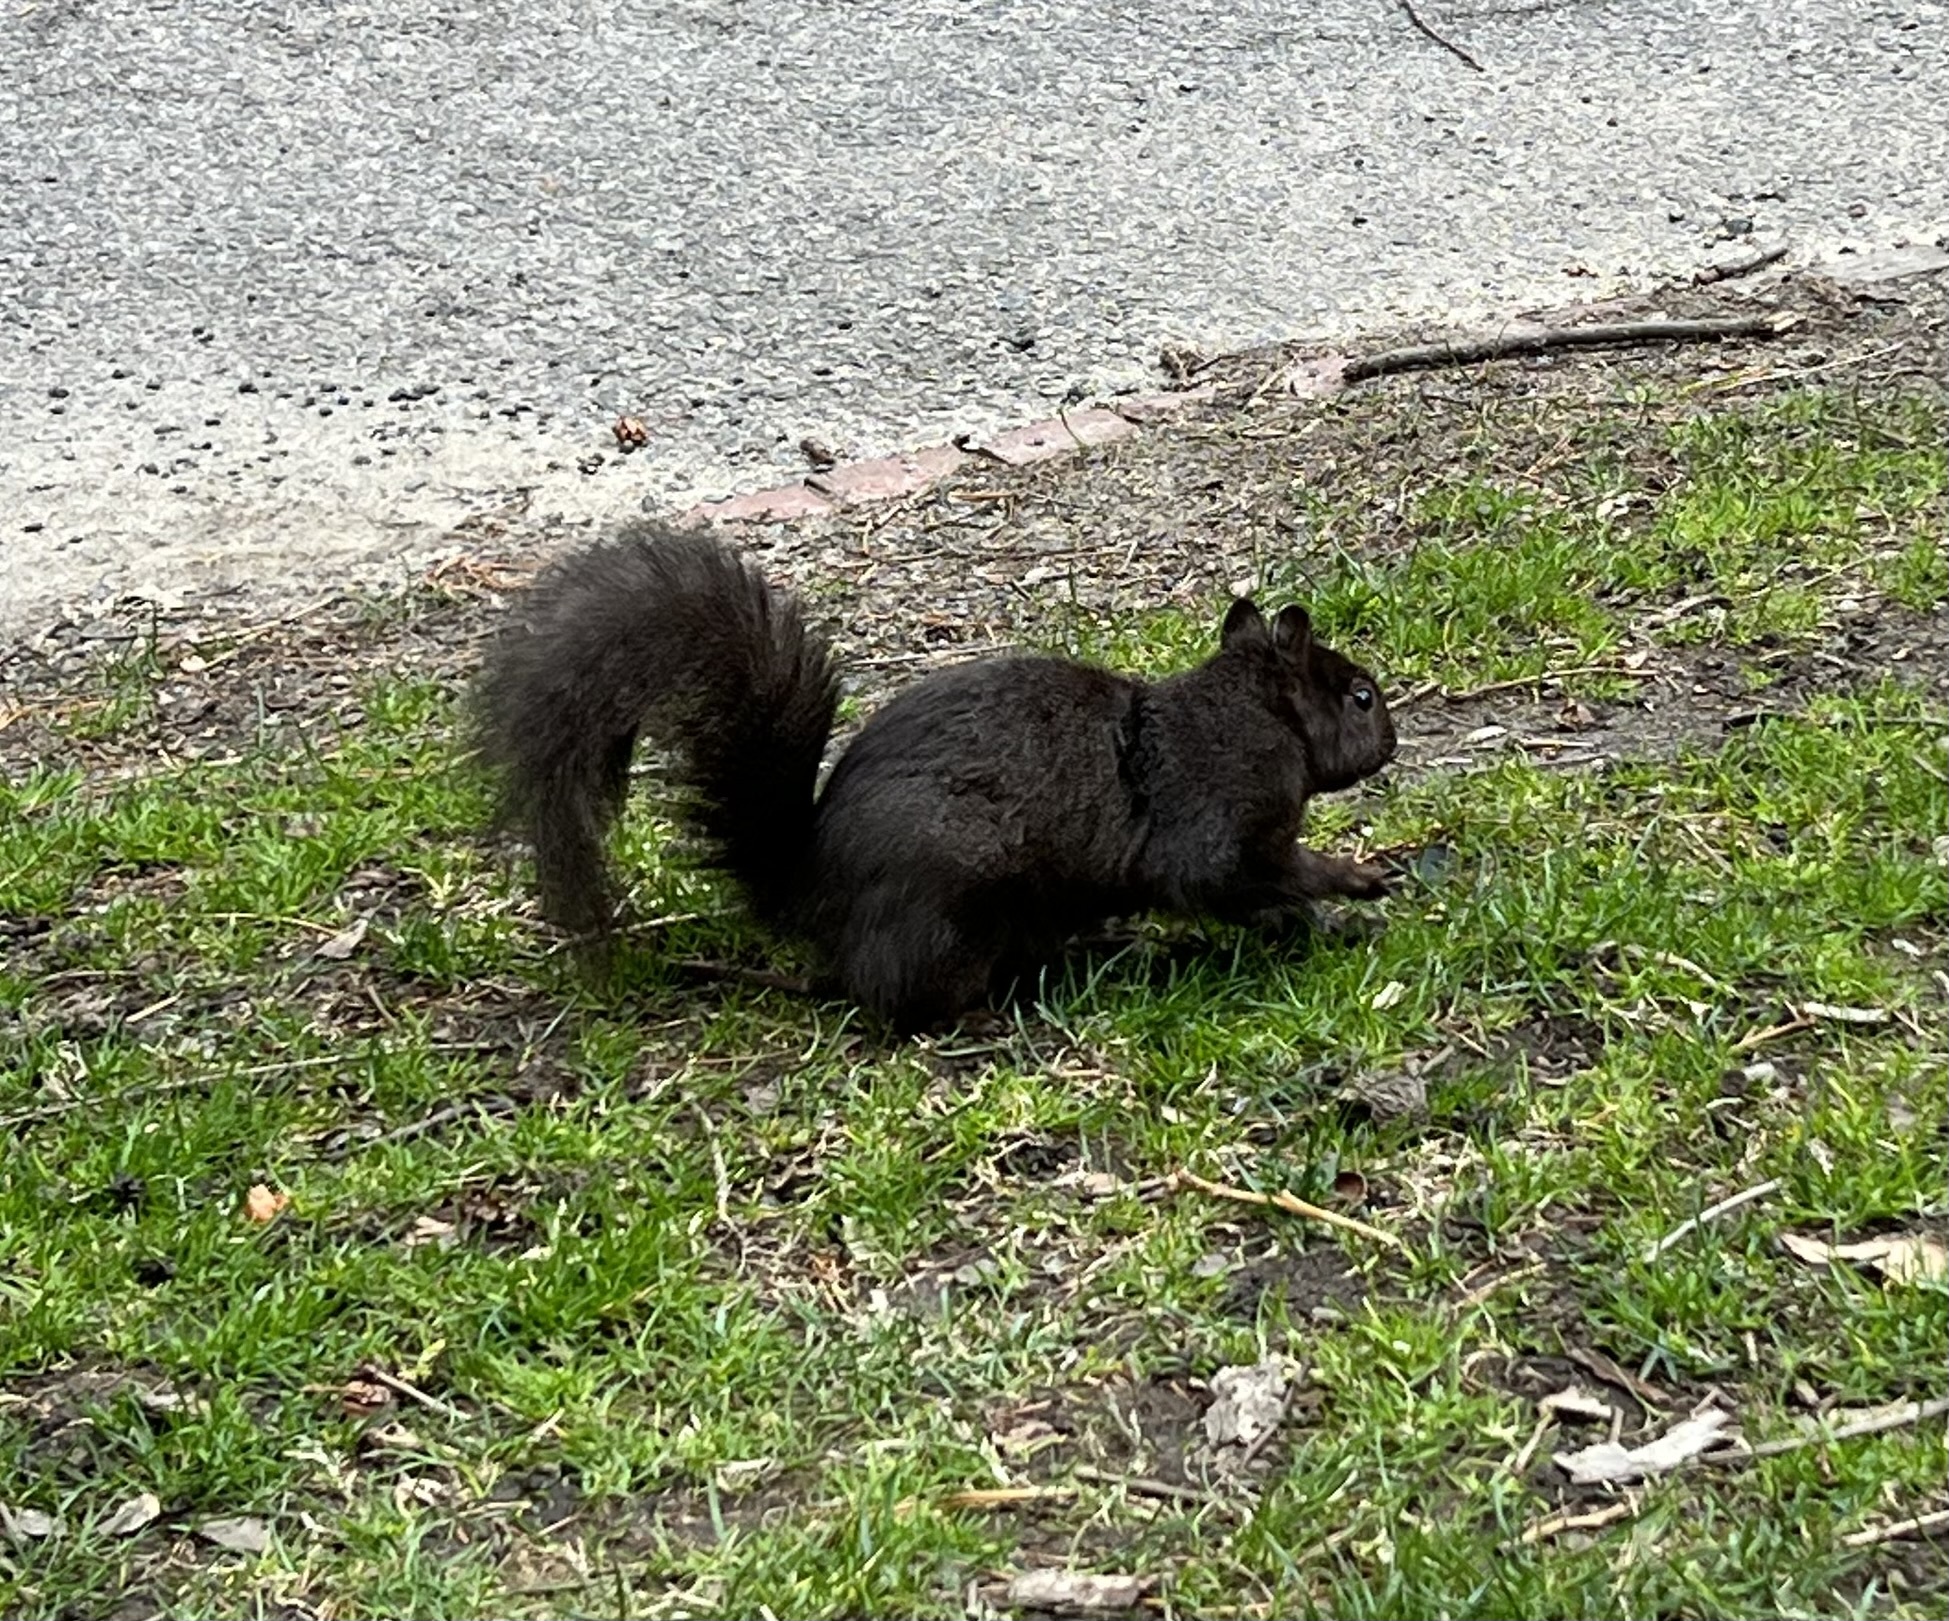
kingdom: Animalia
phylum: Chordata
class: Mammalia
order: Rodentia
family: Sciuridae
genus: Sciurus
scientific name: Sciurus carolinensis
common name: Eastern gray squirrel
